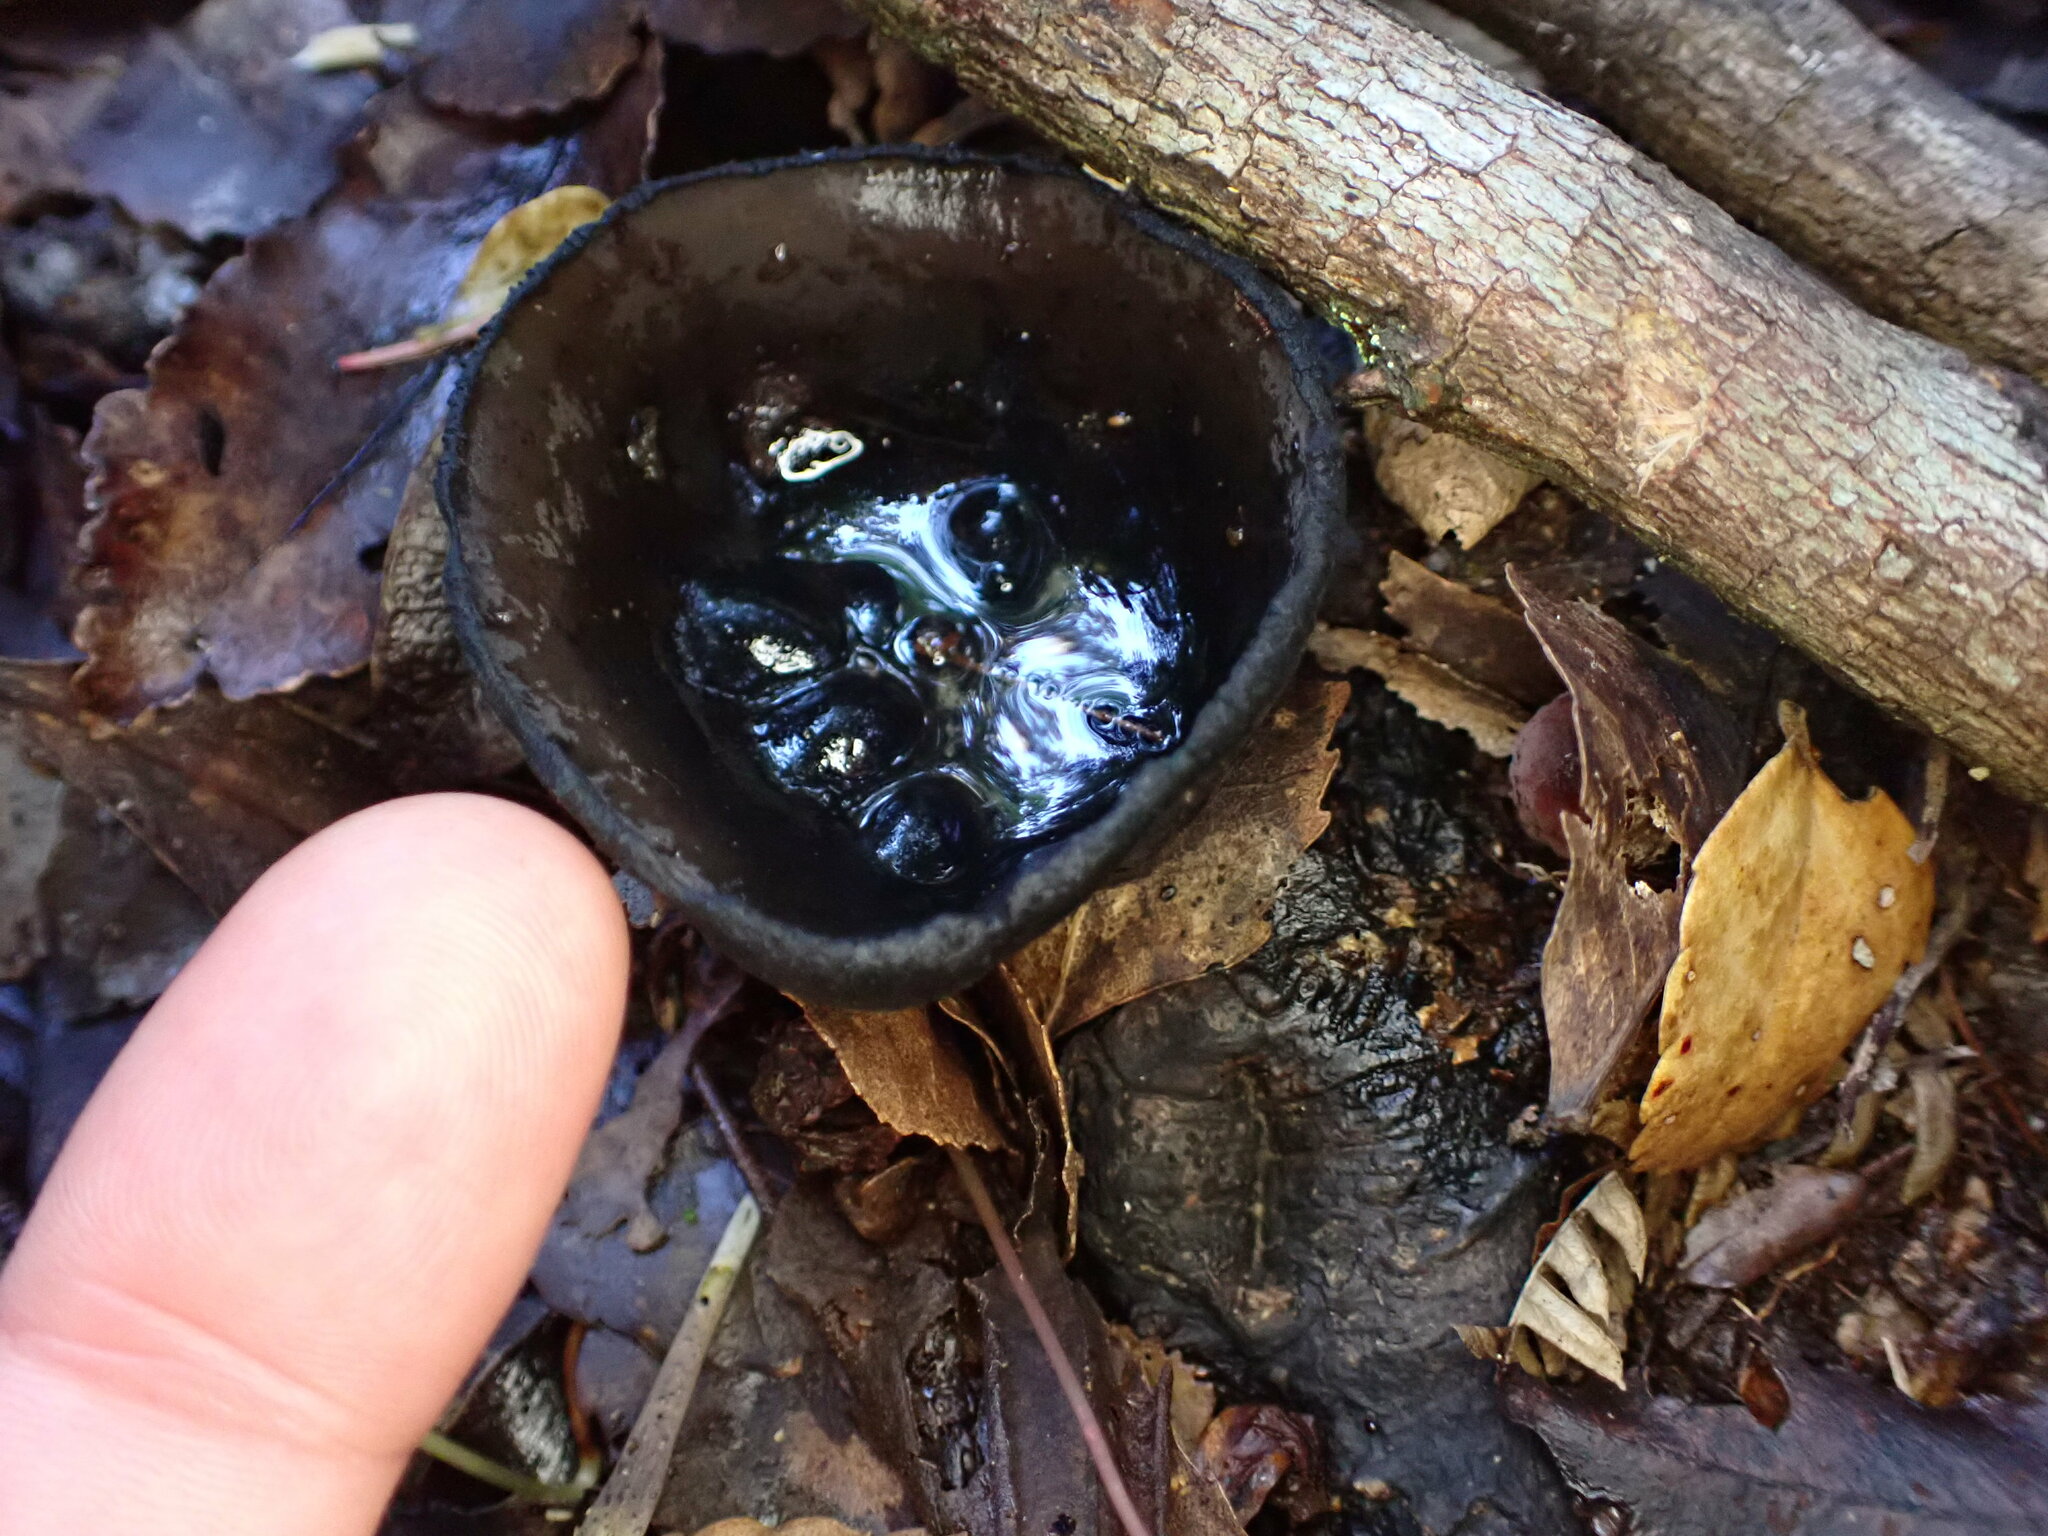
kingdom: Fungi
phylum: Ascomycota
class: Pezizomycetes
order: Pezizales
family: Sarcosomataceae
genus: Plectania
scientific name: Plectania campylospora
